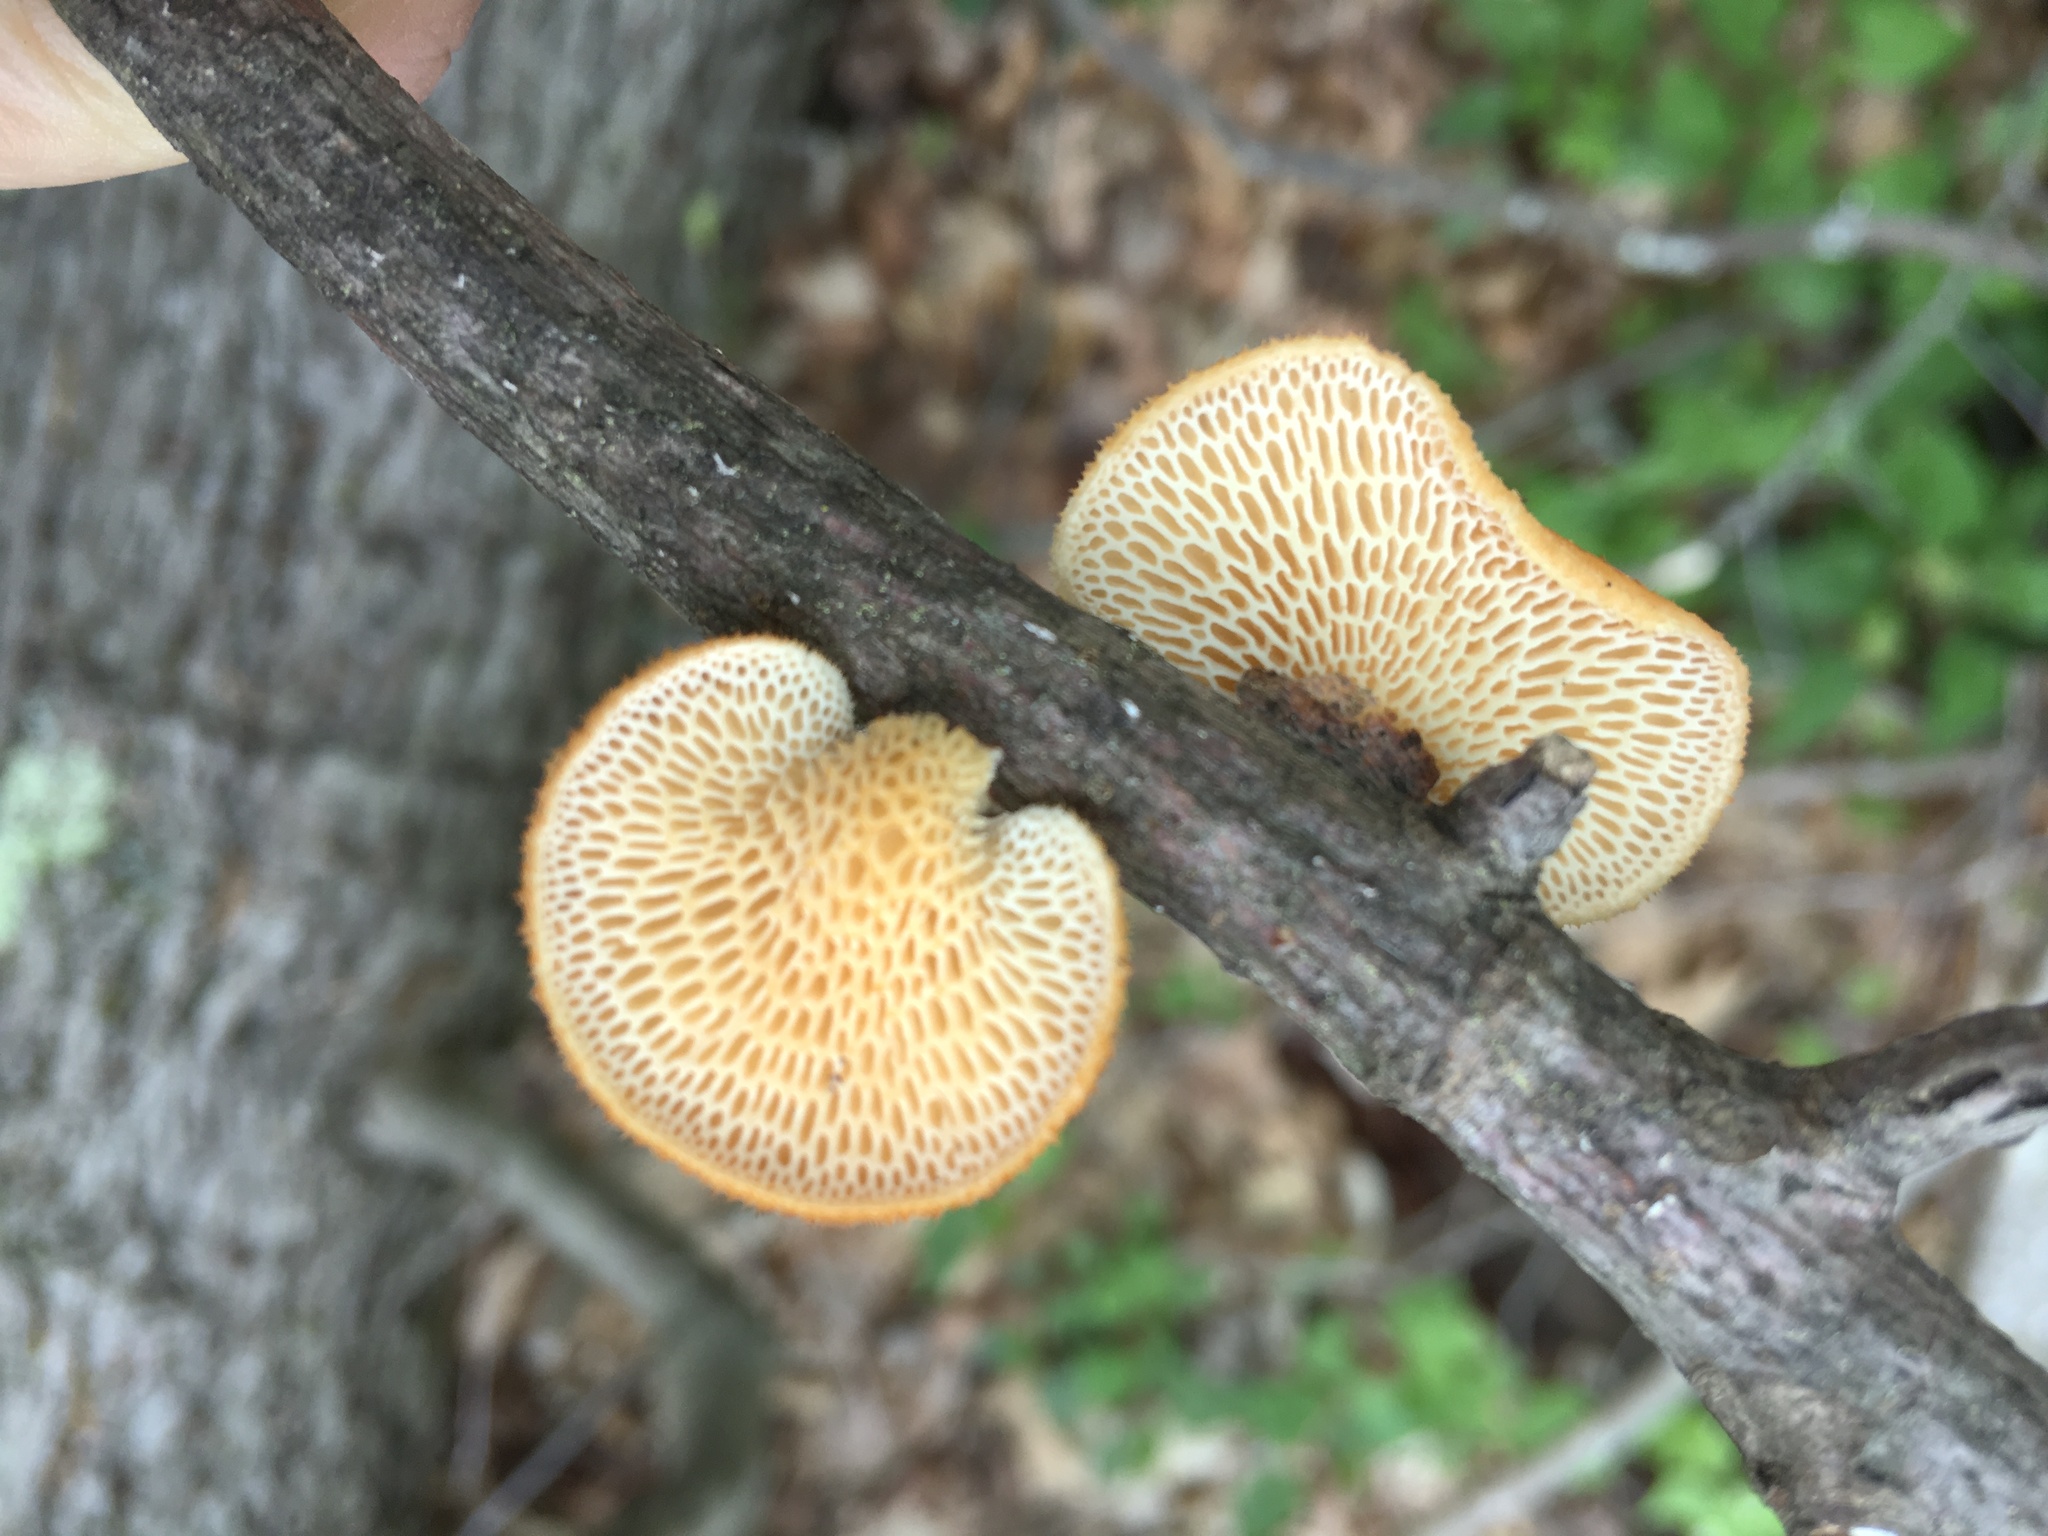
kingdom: Fungi
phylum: Basidiomycota
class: Agaricomycetes
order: Polyporales
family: Polyporaceae
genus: Neofavolus
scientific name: Neofavolus alveolaris
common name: Hexagonal-pored polypore
